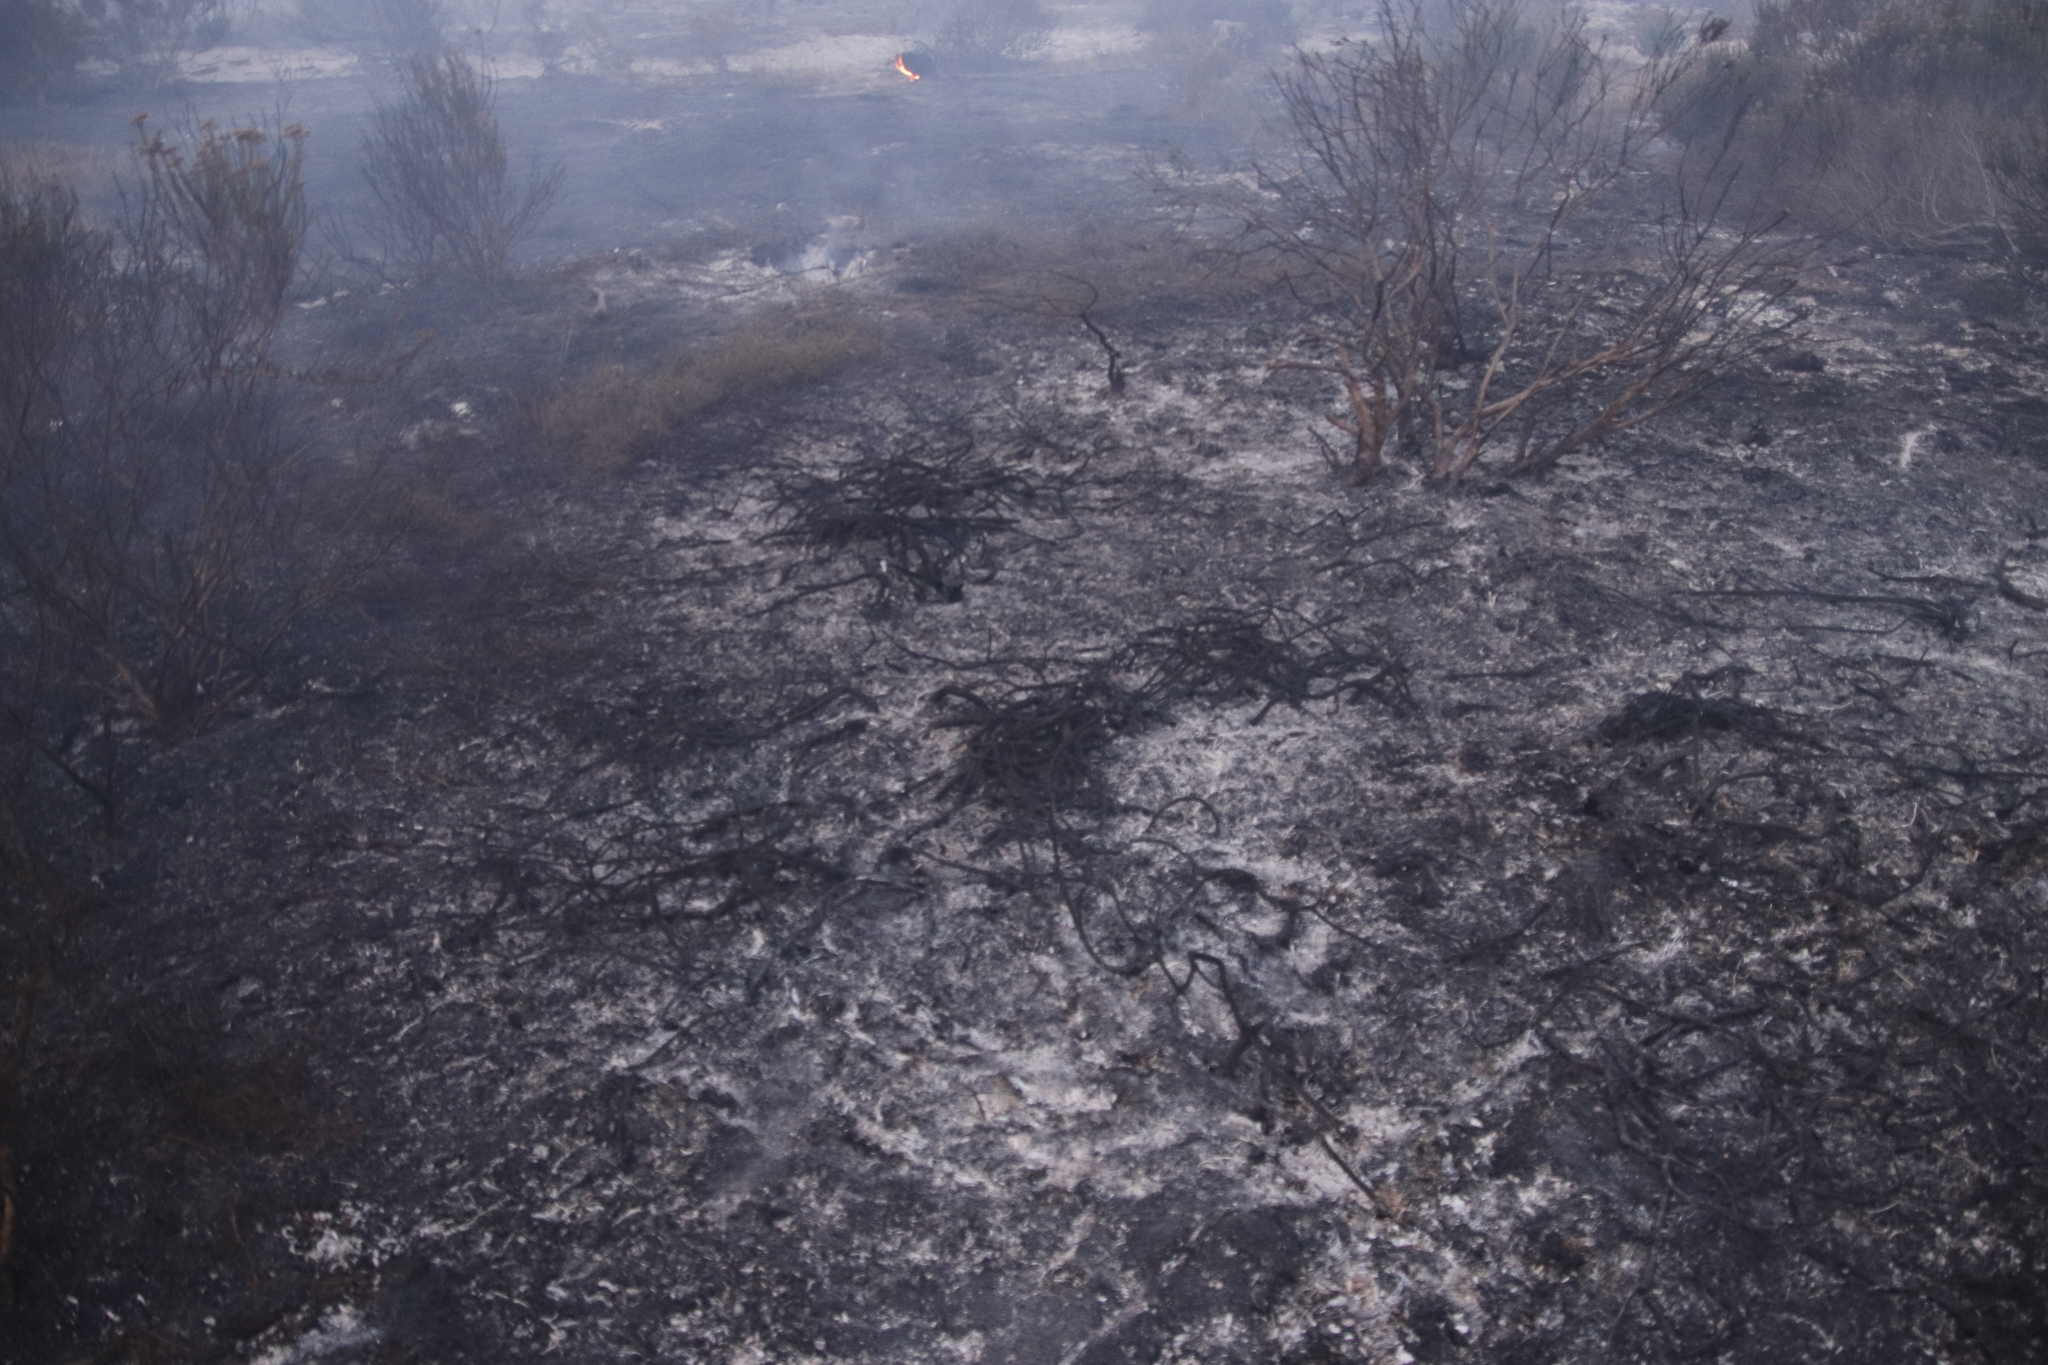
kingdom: Plantae
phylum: Tracheophyta
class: Magnoliopsida
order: Proteales
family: Proteaceae
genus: Diastella
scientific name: Diastella proteoides
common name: Flats silkypuff
